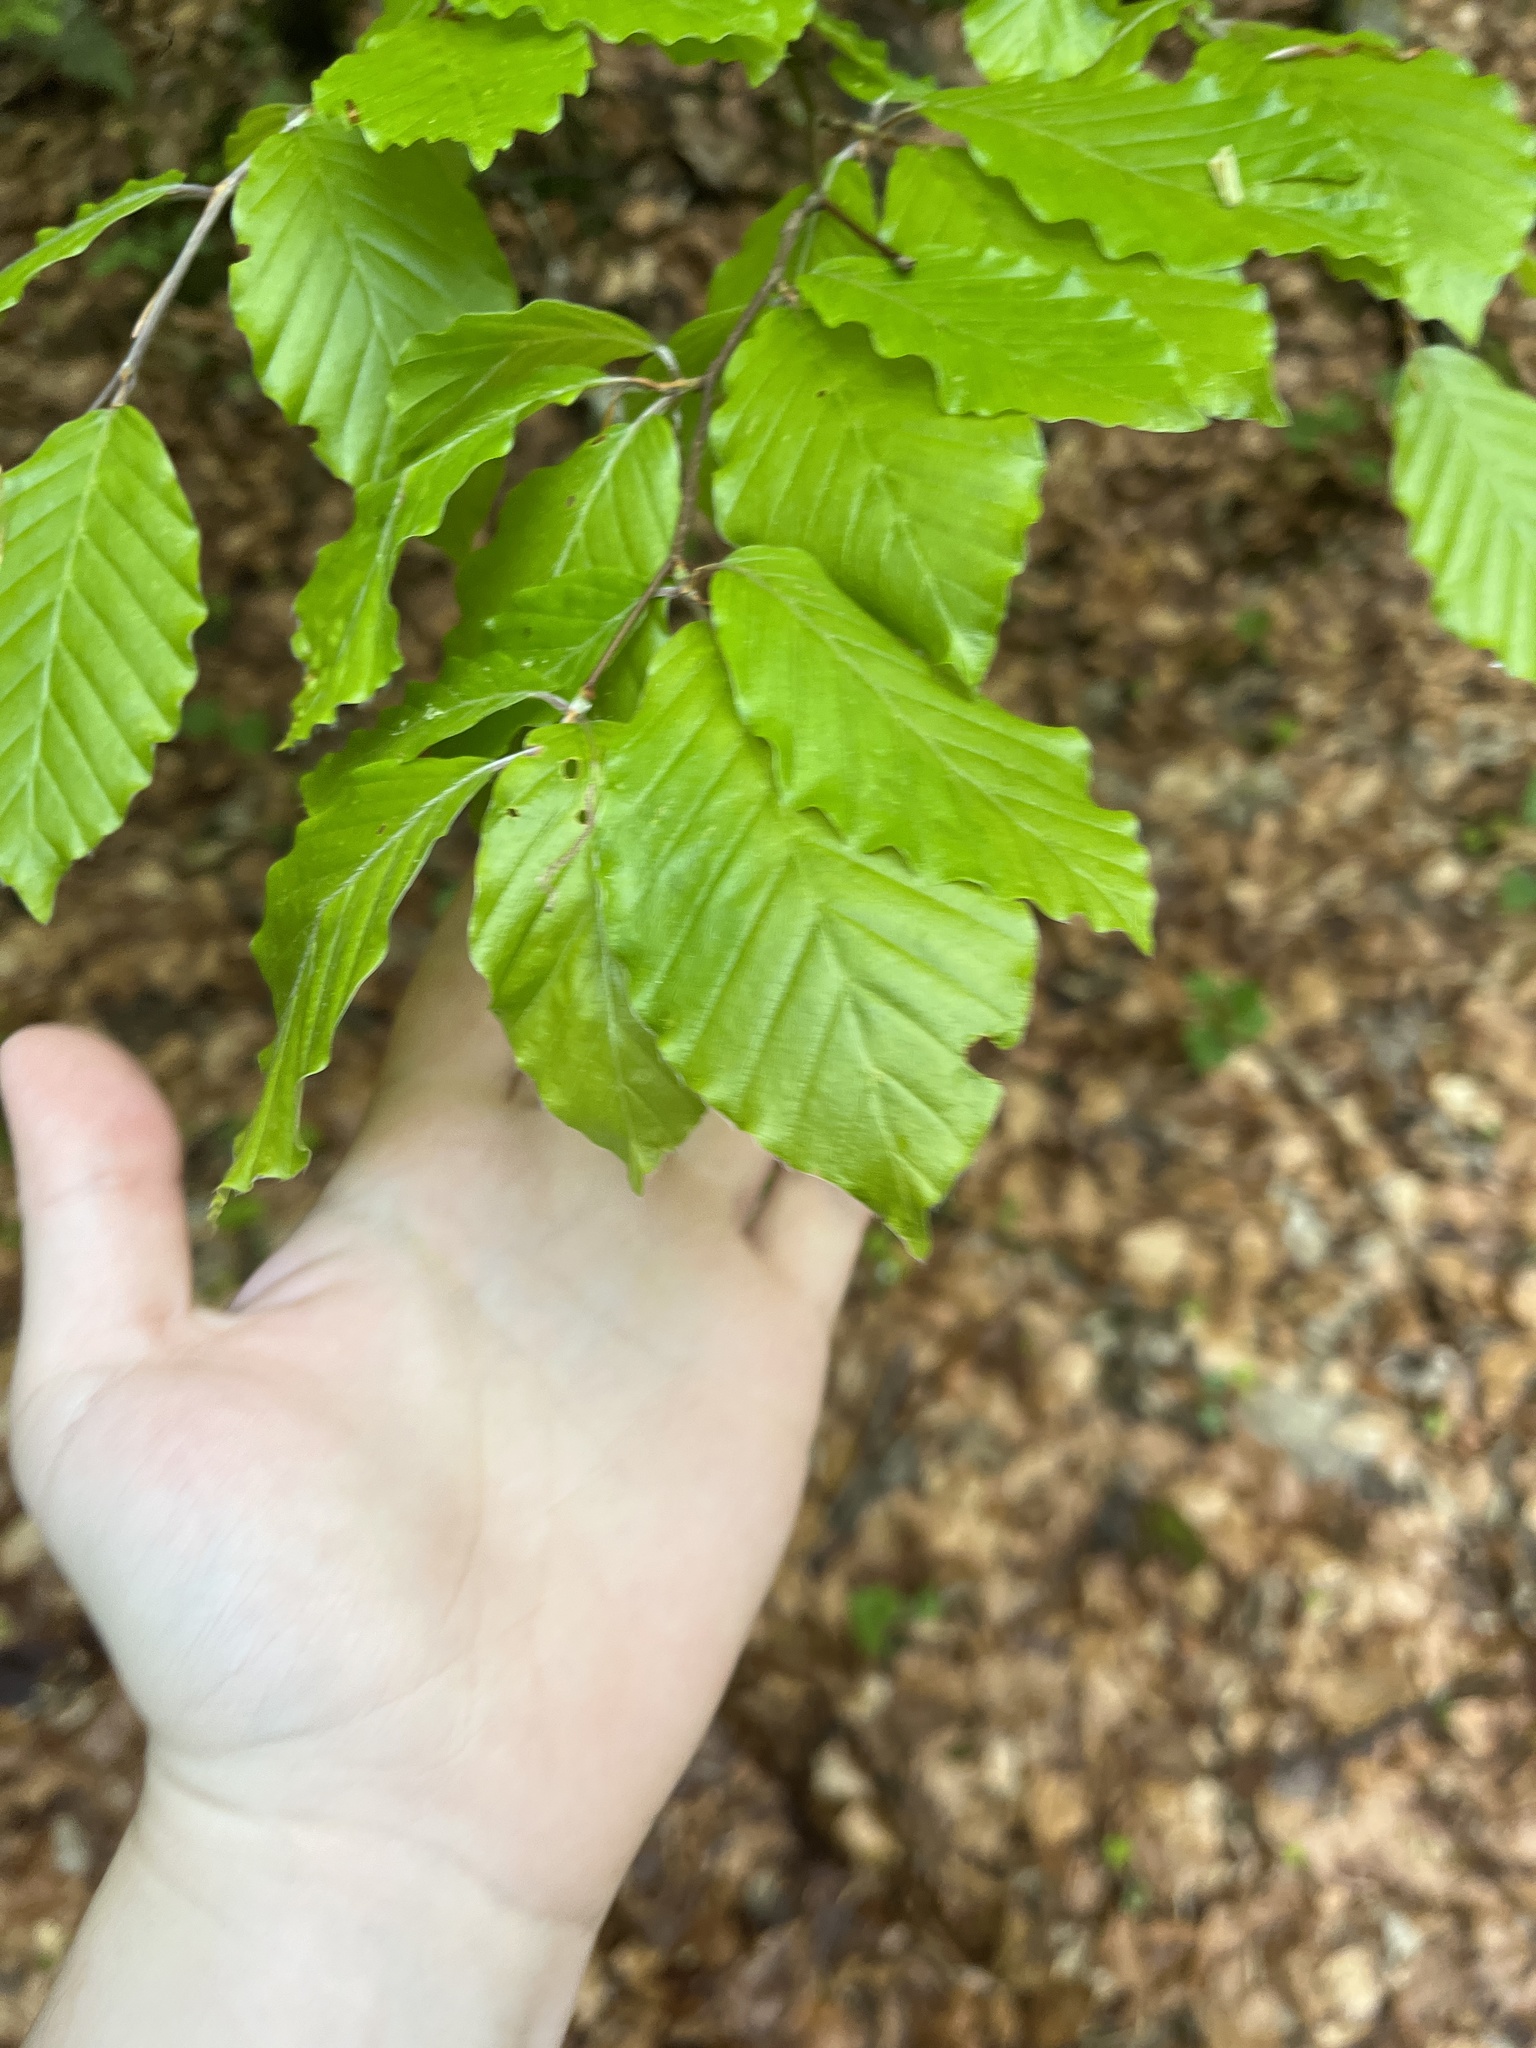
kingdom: Plantae
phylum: Tracheophyta
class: Magnoliopsida
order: Fagales
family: Fagaceae
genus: Fagus
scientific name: Fagus sylvatica
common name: Beech
